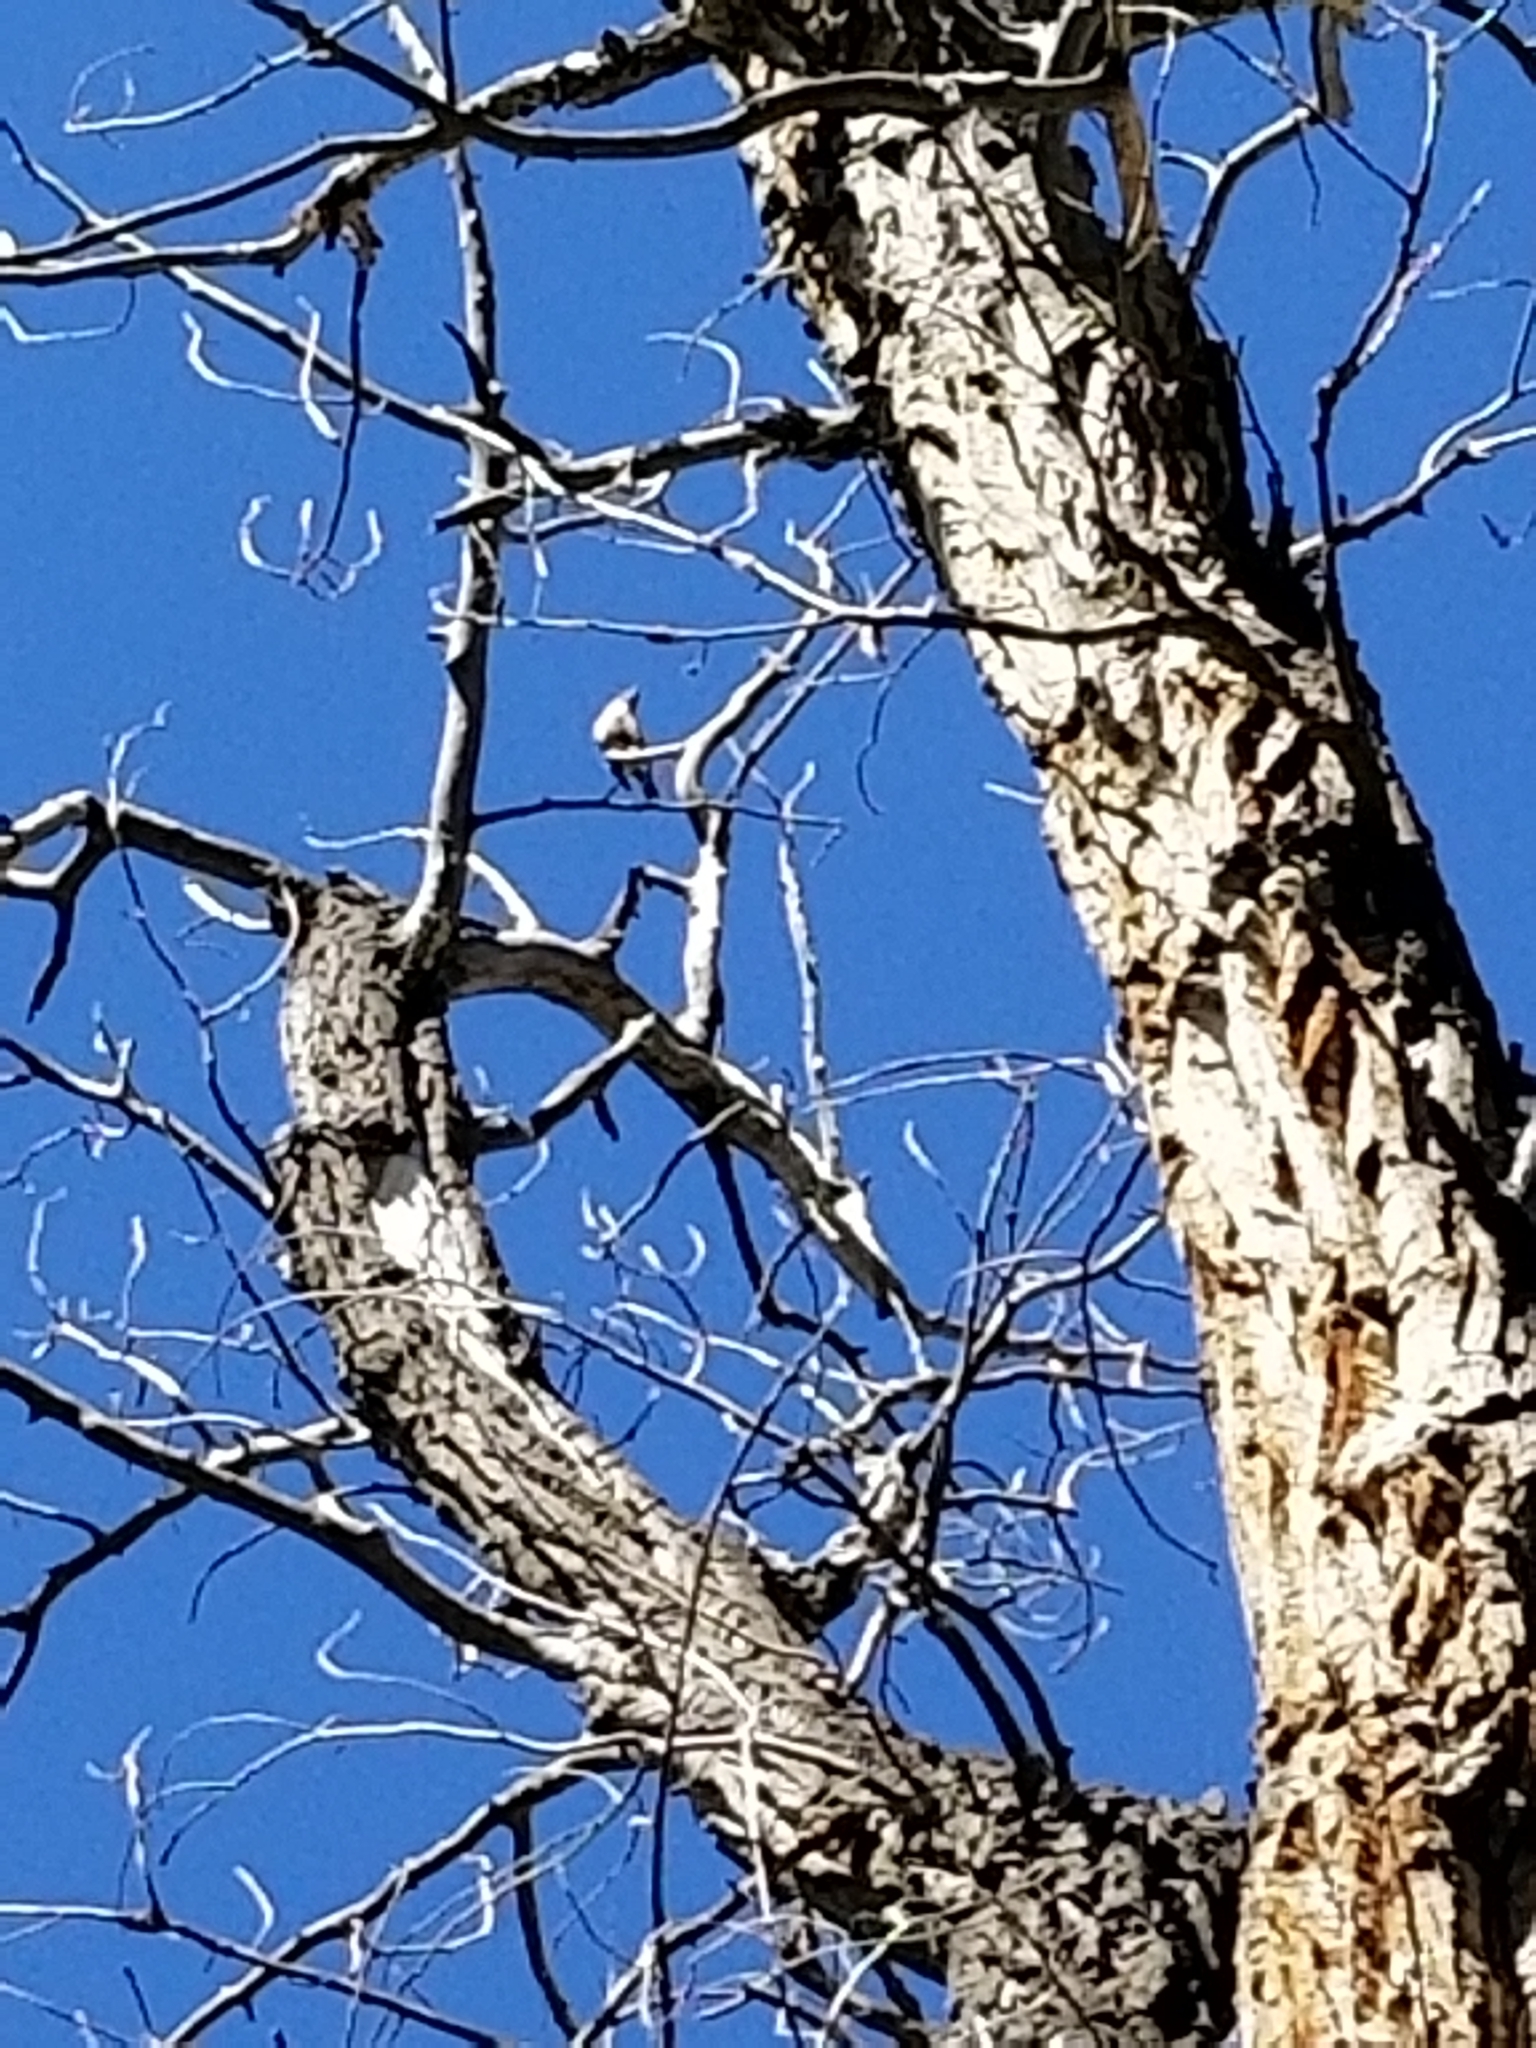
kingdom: Animalia
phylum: Chordata
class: Aves
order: Passeriformes
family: Corvidae
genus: Nucifraga
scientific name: Nucifraga columbiana
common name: Clark's nutcracker
